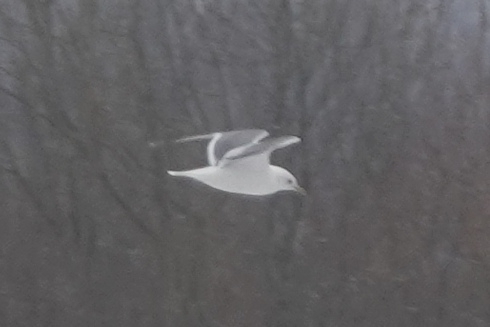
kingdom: Animalia
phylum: Chordata
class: Aves
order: Charadriiformes
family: Laridae
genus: Larus
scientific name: Larus canus
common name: Mew gull
